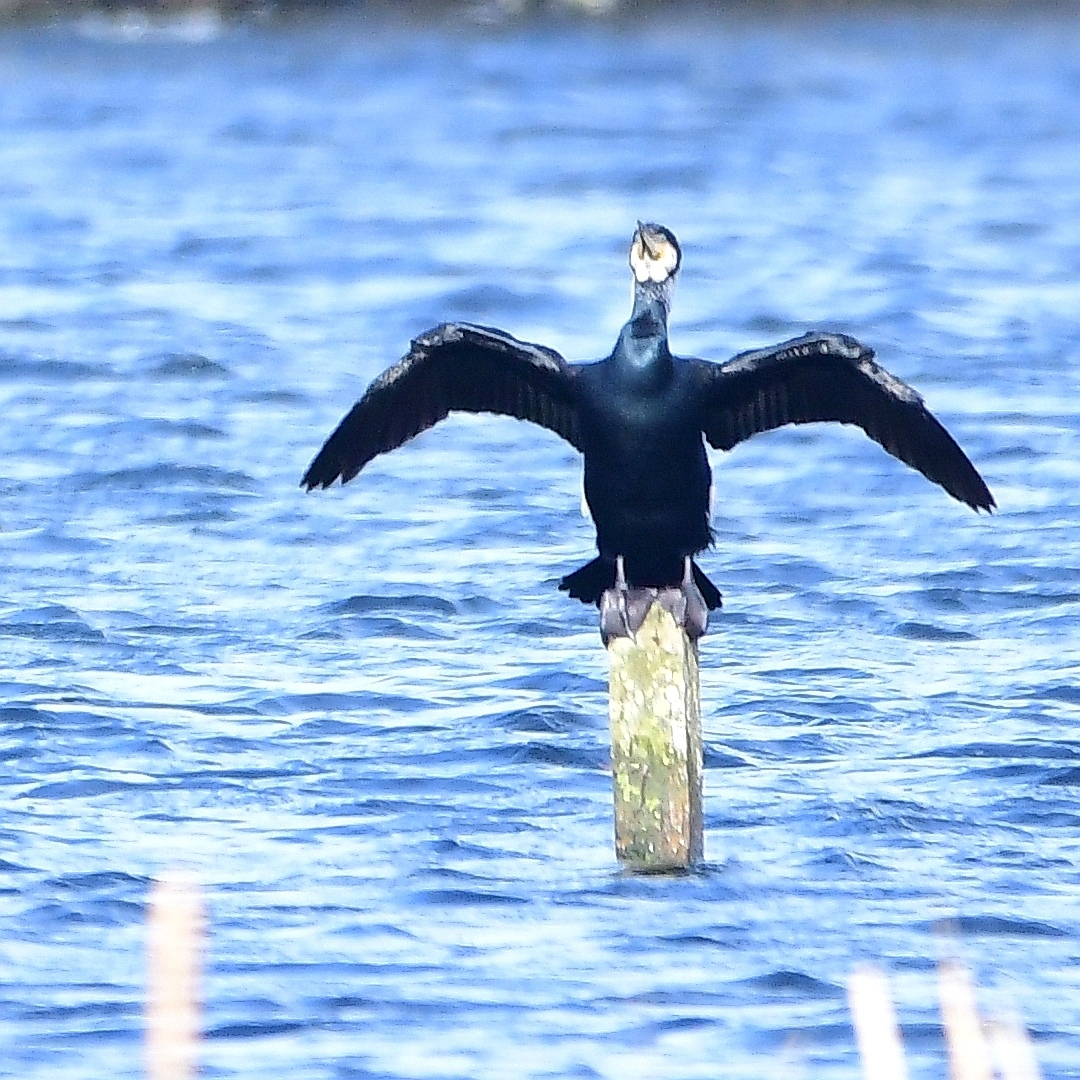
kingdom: Animalia
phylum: Chordata
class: Aves
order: Suliformes
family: Phalacrocoracidae
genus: Phalacrocorax
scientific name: Phalacrocorax carbo
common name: Great cormorant
